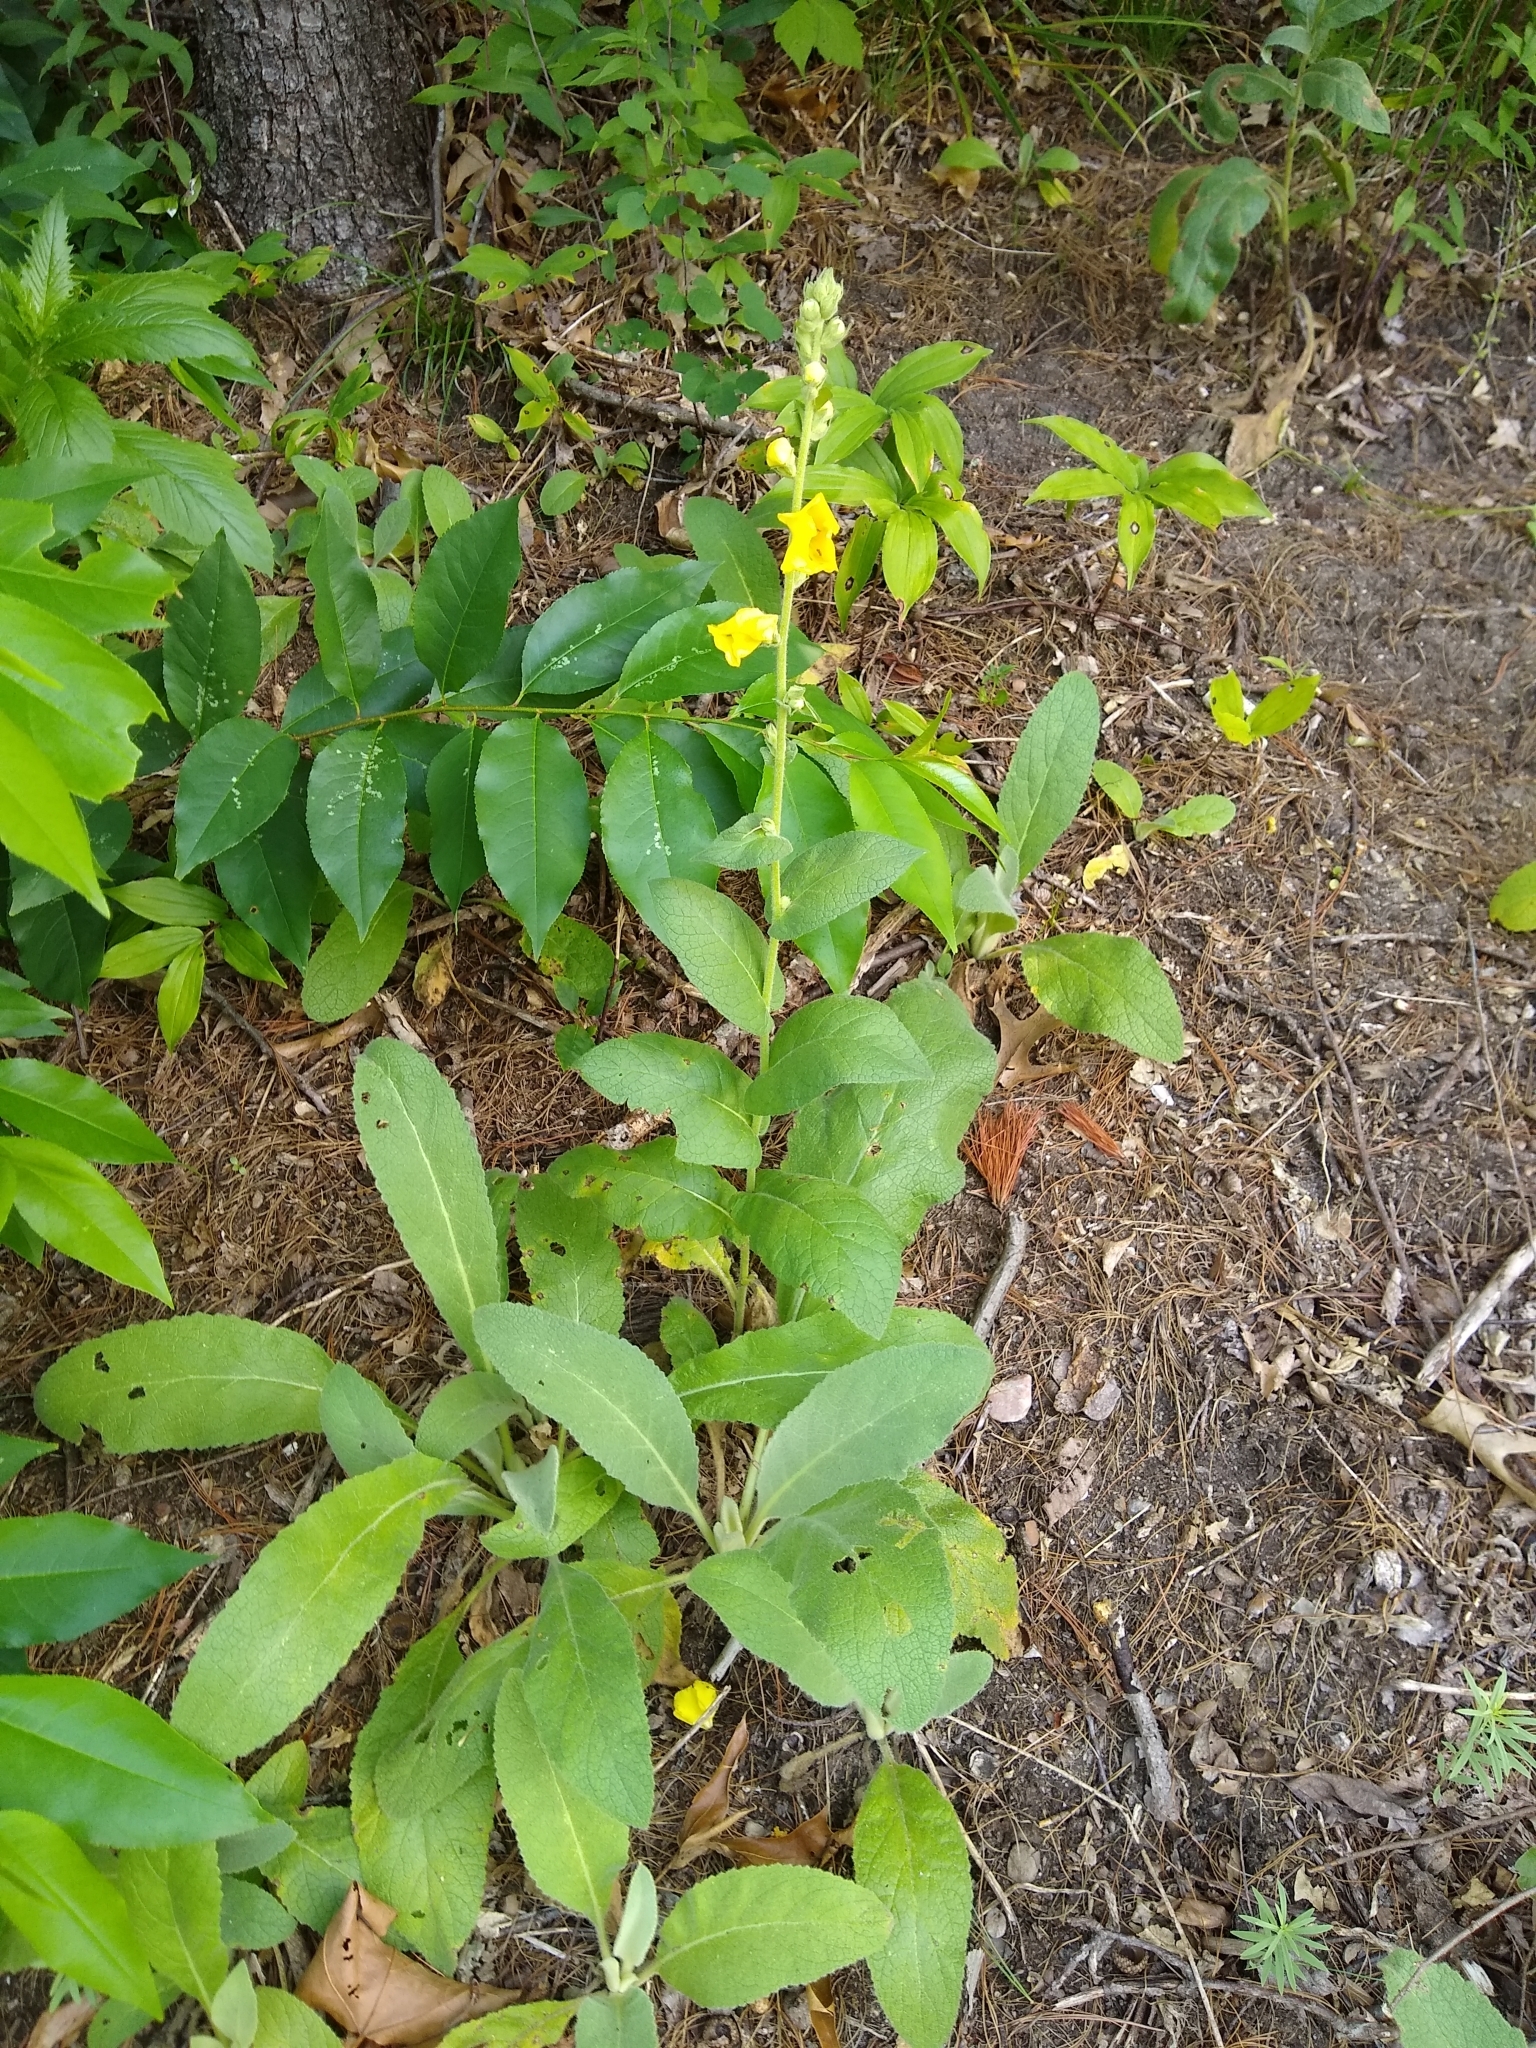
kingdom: Plantae
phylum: Tracheophyta
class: Magnoliopsida
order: Lamiales
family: Scrophulariaceae
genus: Verbascum
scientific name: Verbascum phlomoides
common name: Orange mullein
